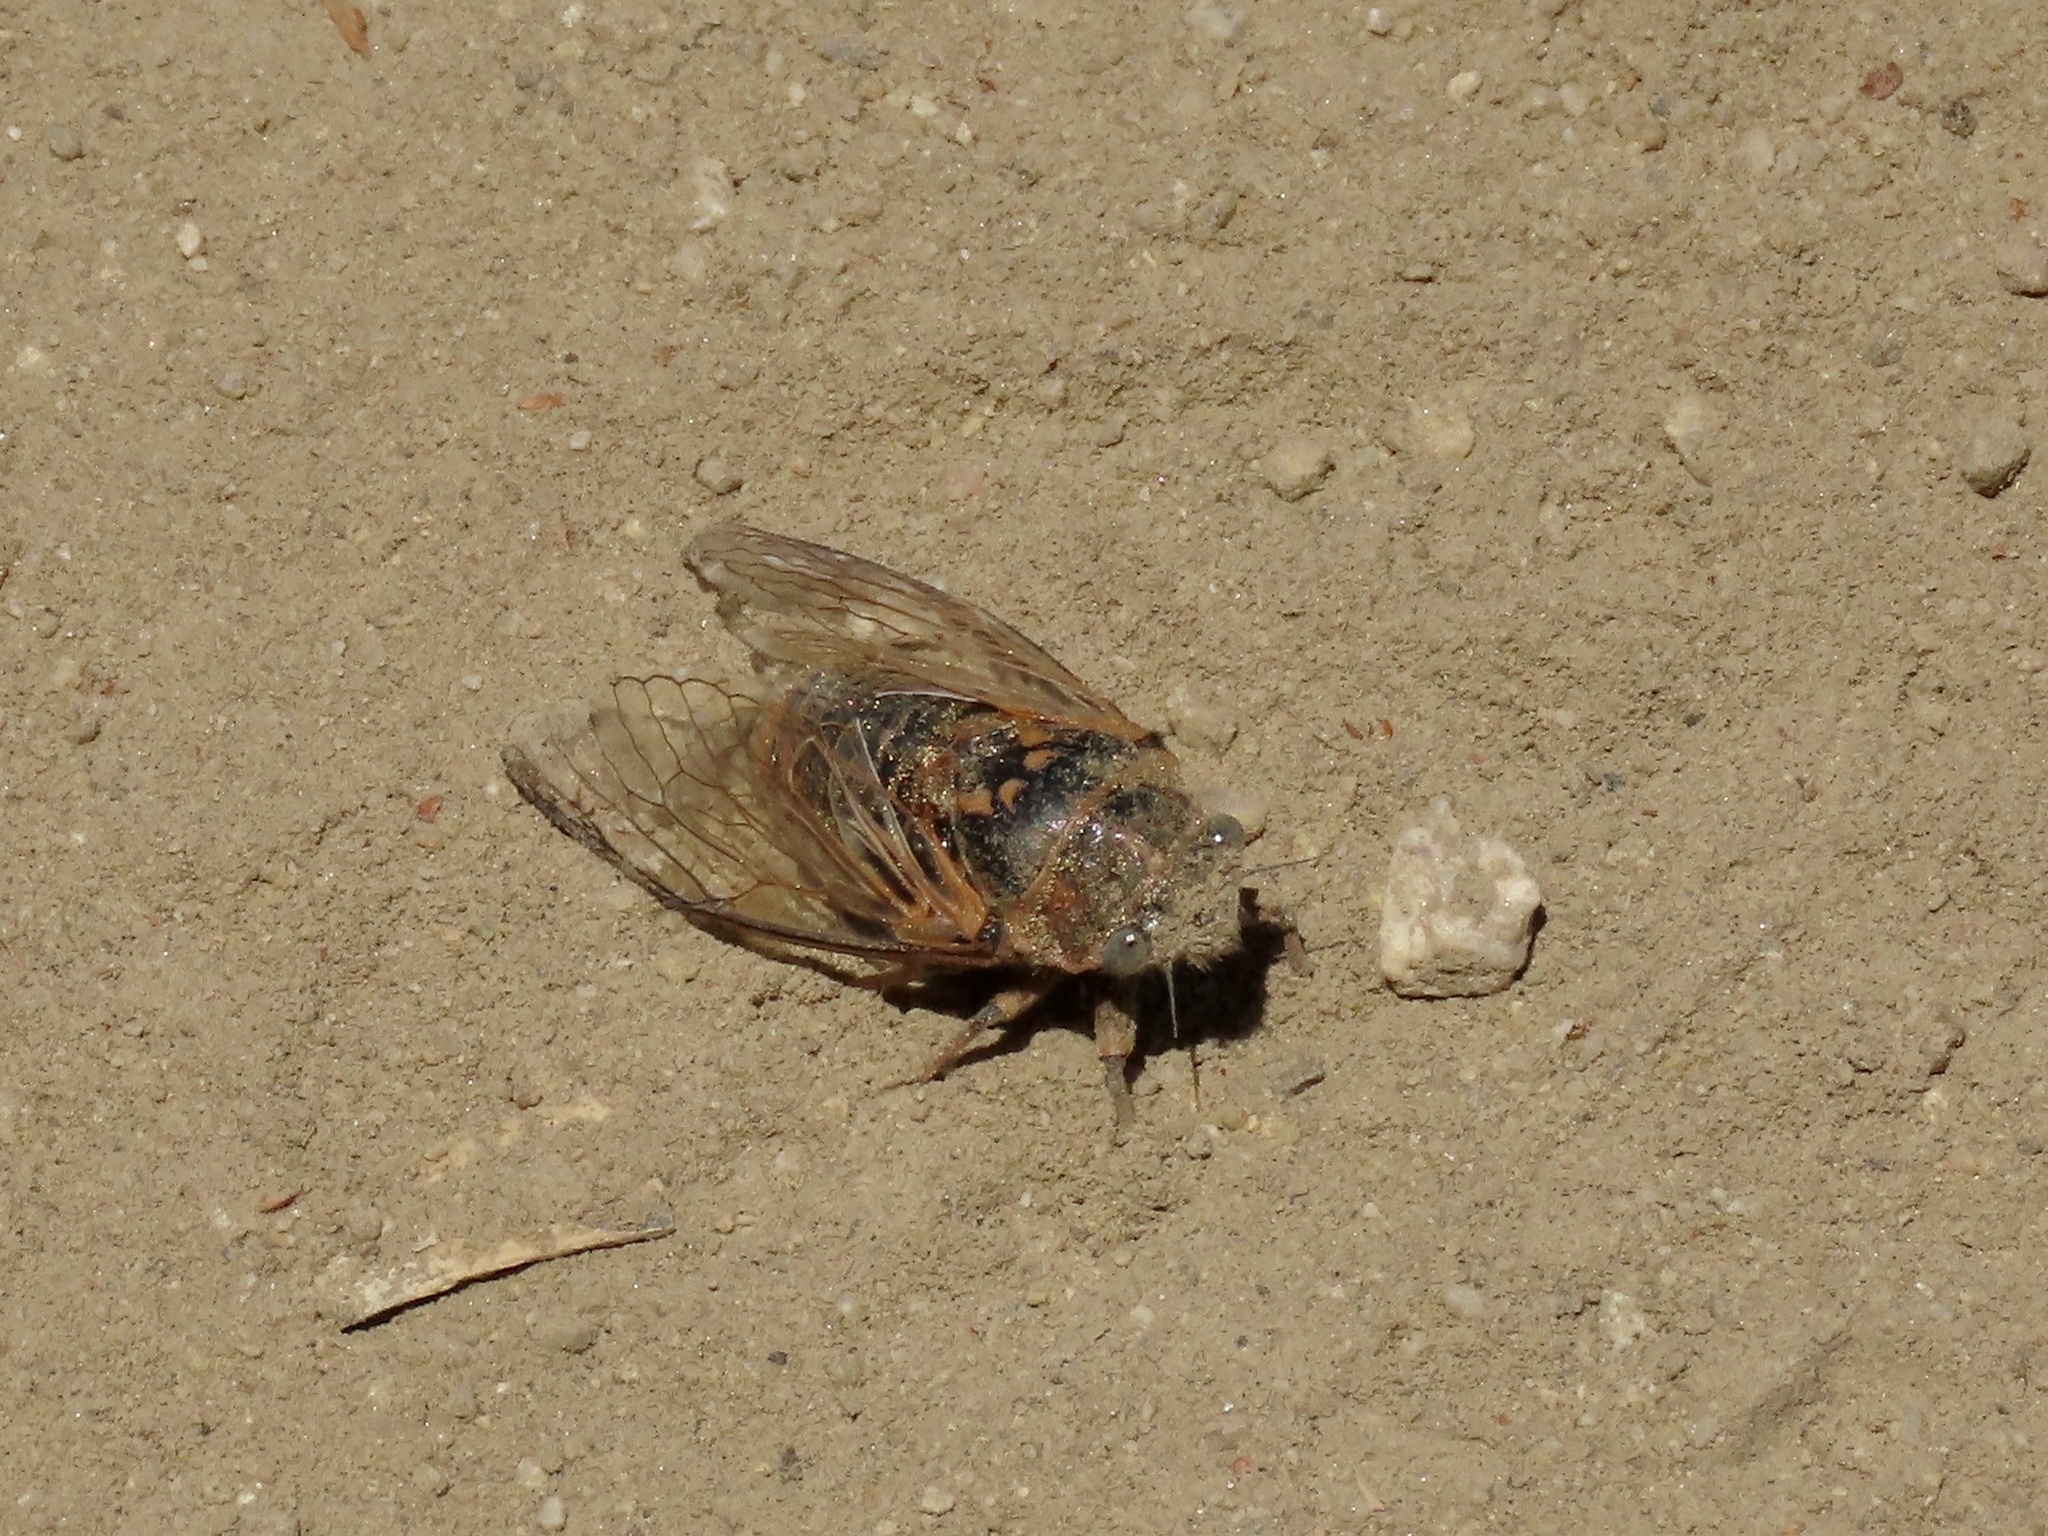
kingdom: Animalia
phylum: Arthropoda
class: Insecta
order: Hemiptera
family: Cicadidae
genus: Tibicinoides
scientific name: Tibicinoides
